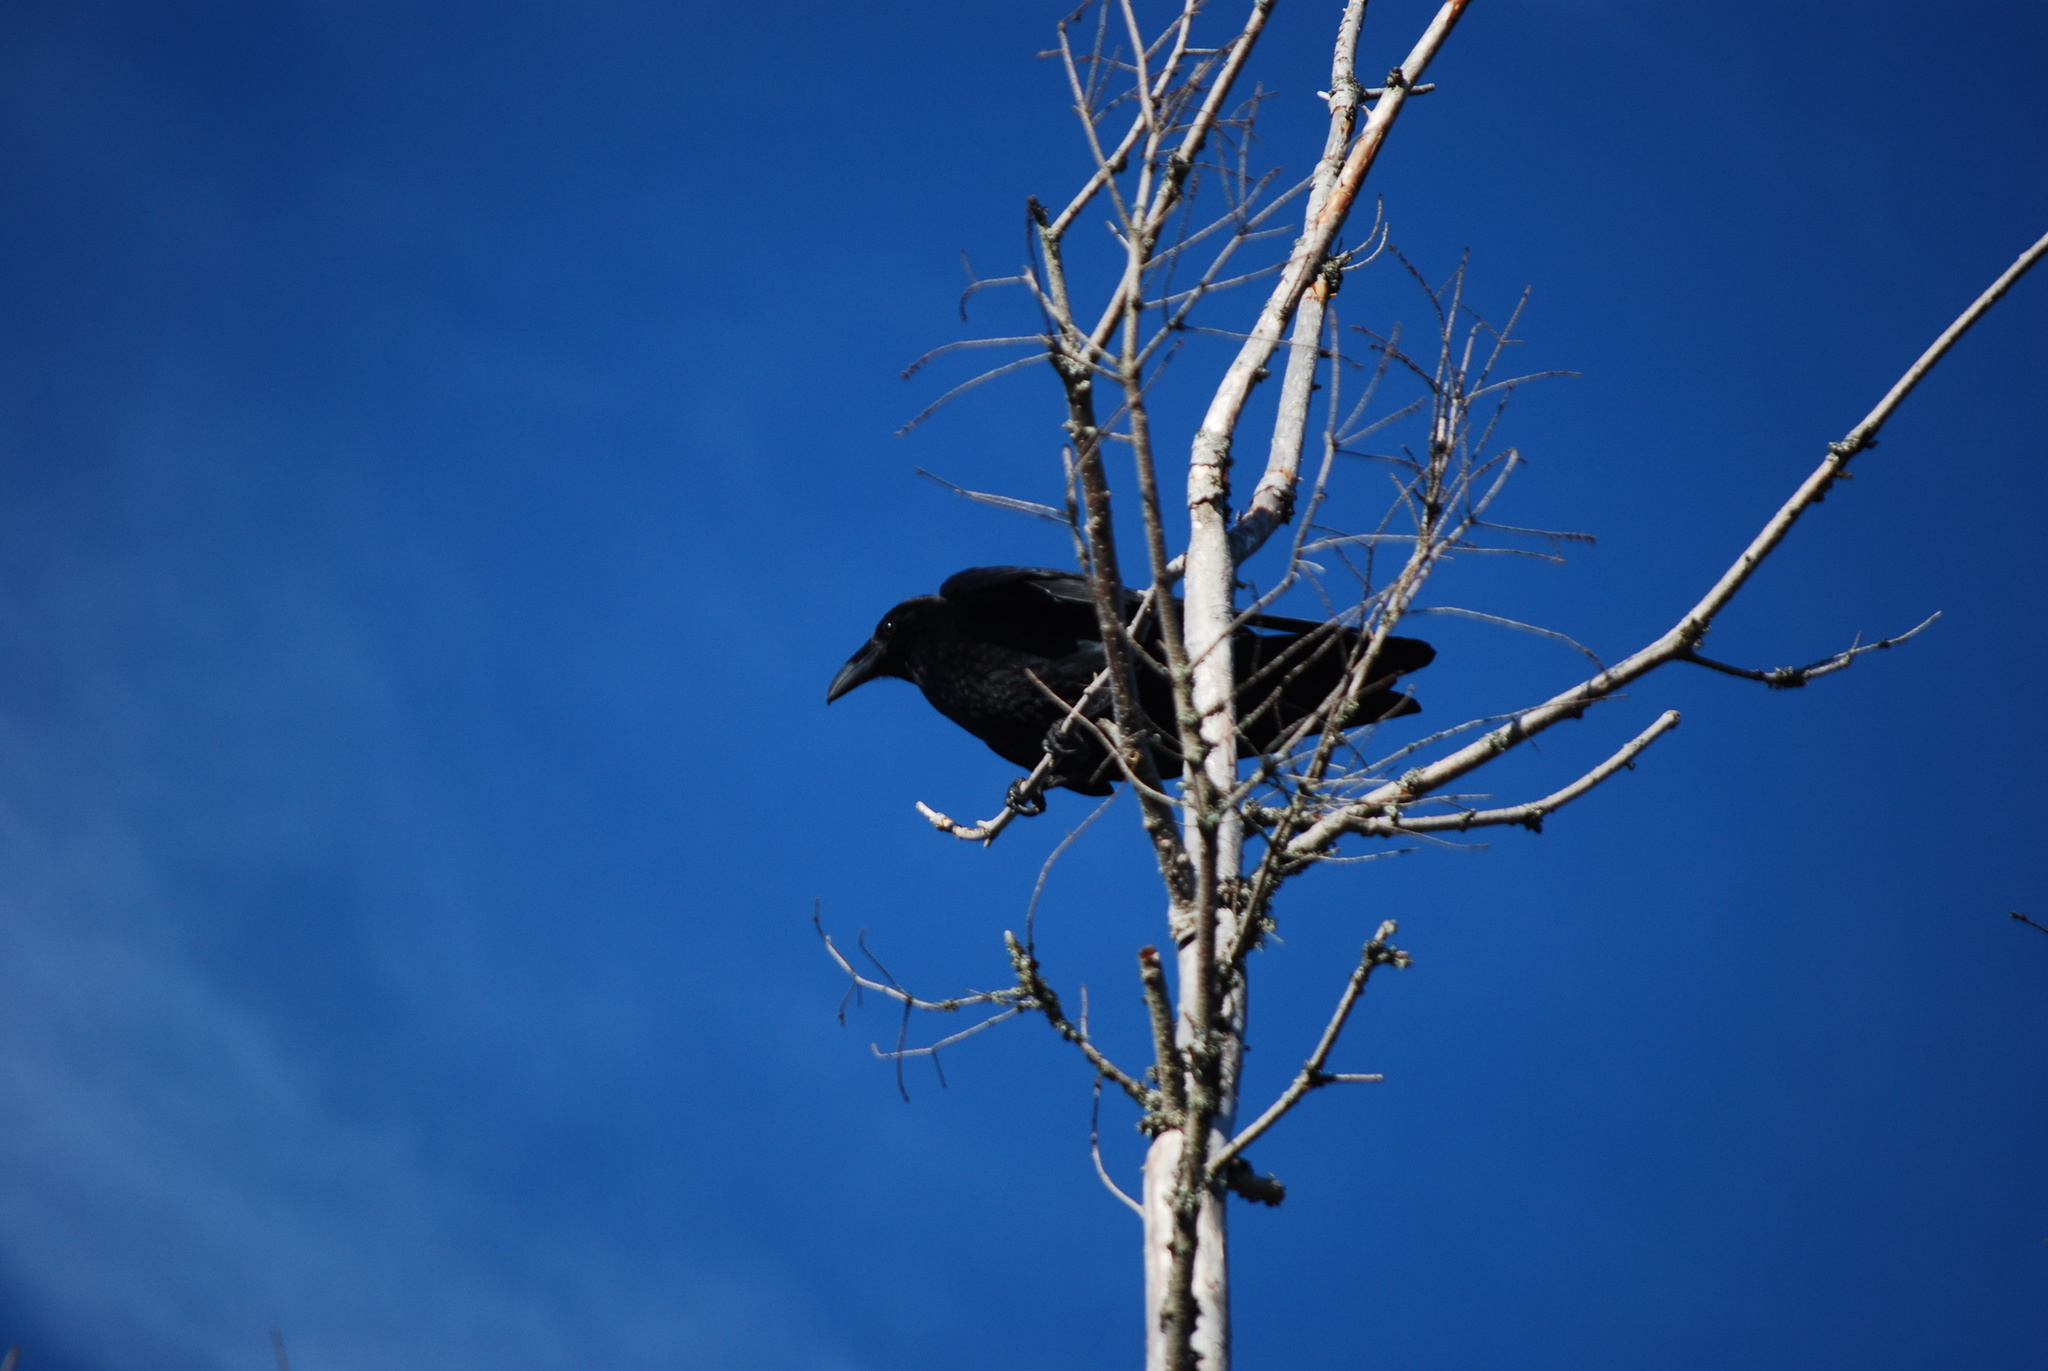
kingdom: Animalia
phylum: Chordata
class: Aves
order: Passeriformes
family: Corvidae
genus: Corvus
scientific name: Corvus corax
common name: Common raven
